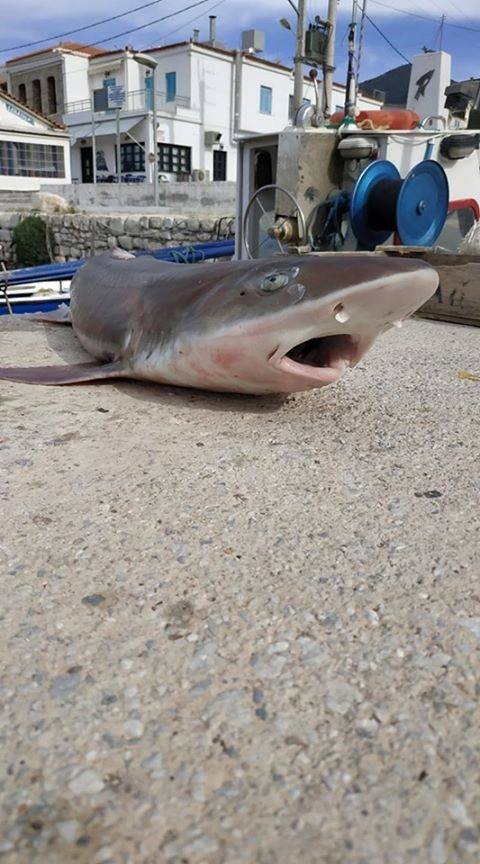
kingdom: Animalia
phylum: Chordata
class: Elasmobranchii
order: Carcharhiniformes
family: Triakidae
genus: Mustelus
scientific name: Mustelus mustelus
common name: Smooth-hound
